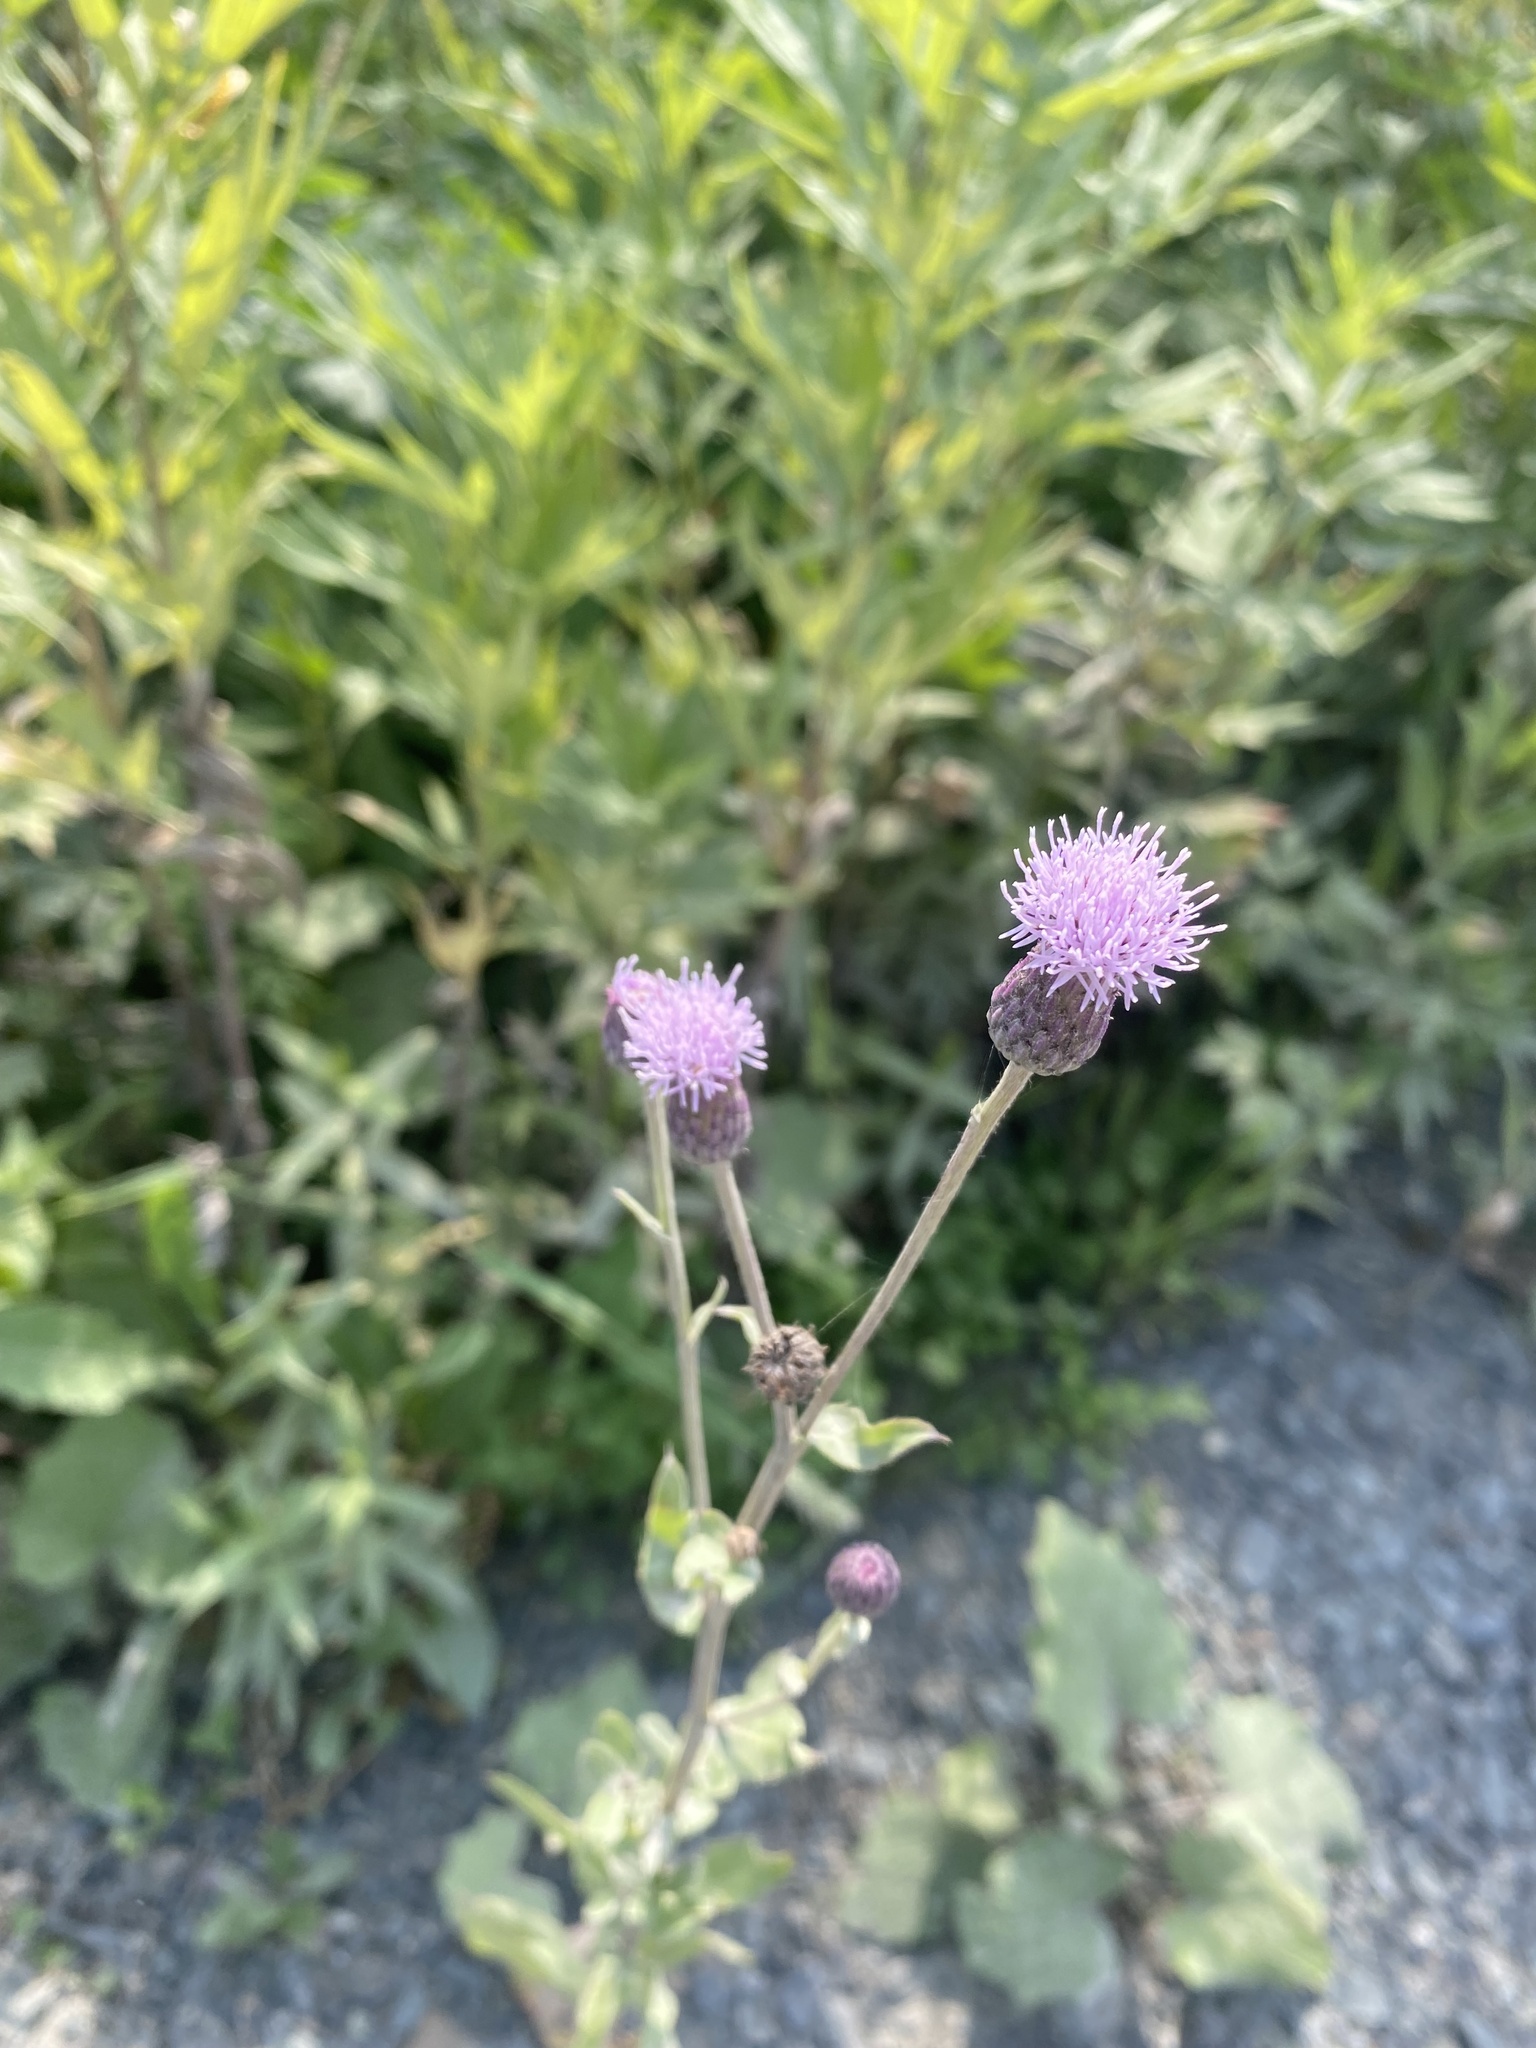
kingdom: Plantae
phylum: Tracheophyta
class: Magnoliopsida
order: Asterales
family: Asteraceae
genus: Cirsium
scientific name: Cirsium arvense
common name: Creeping thistle
